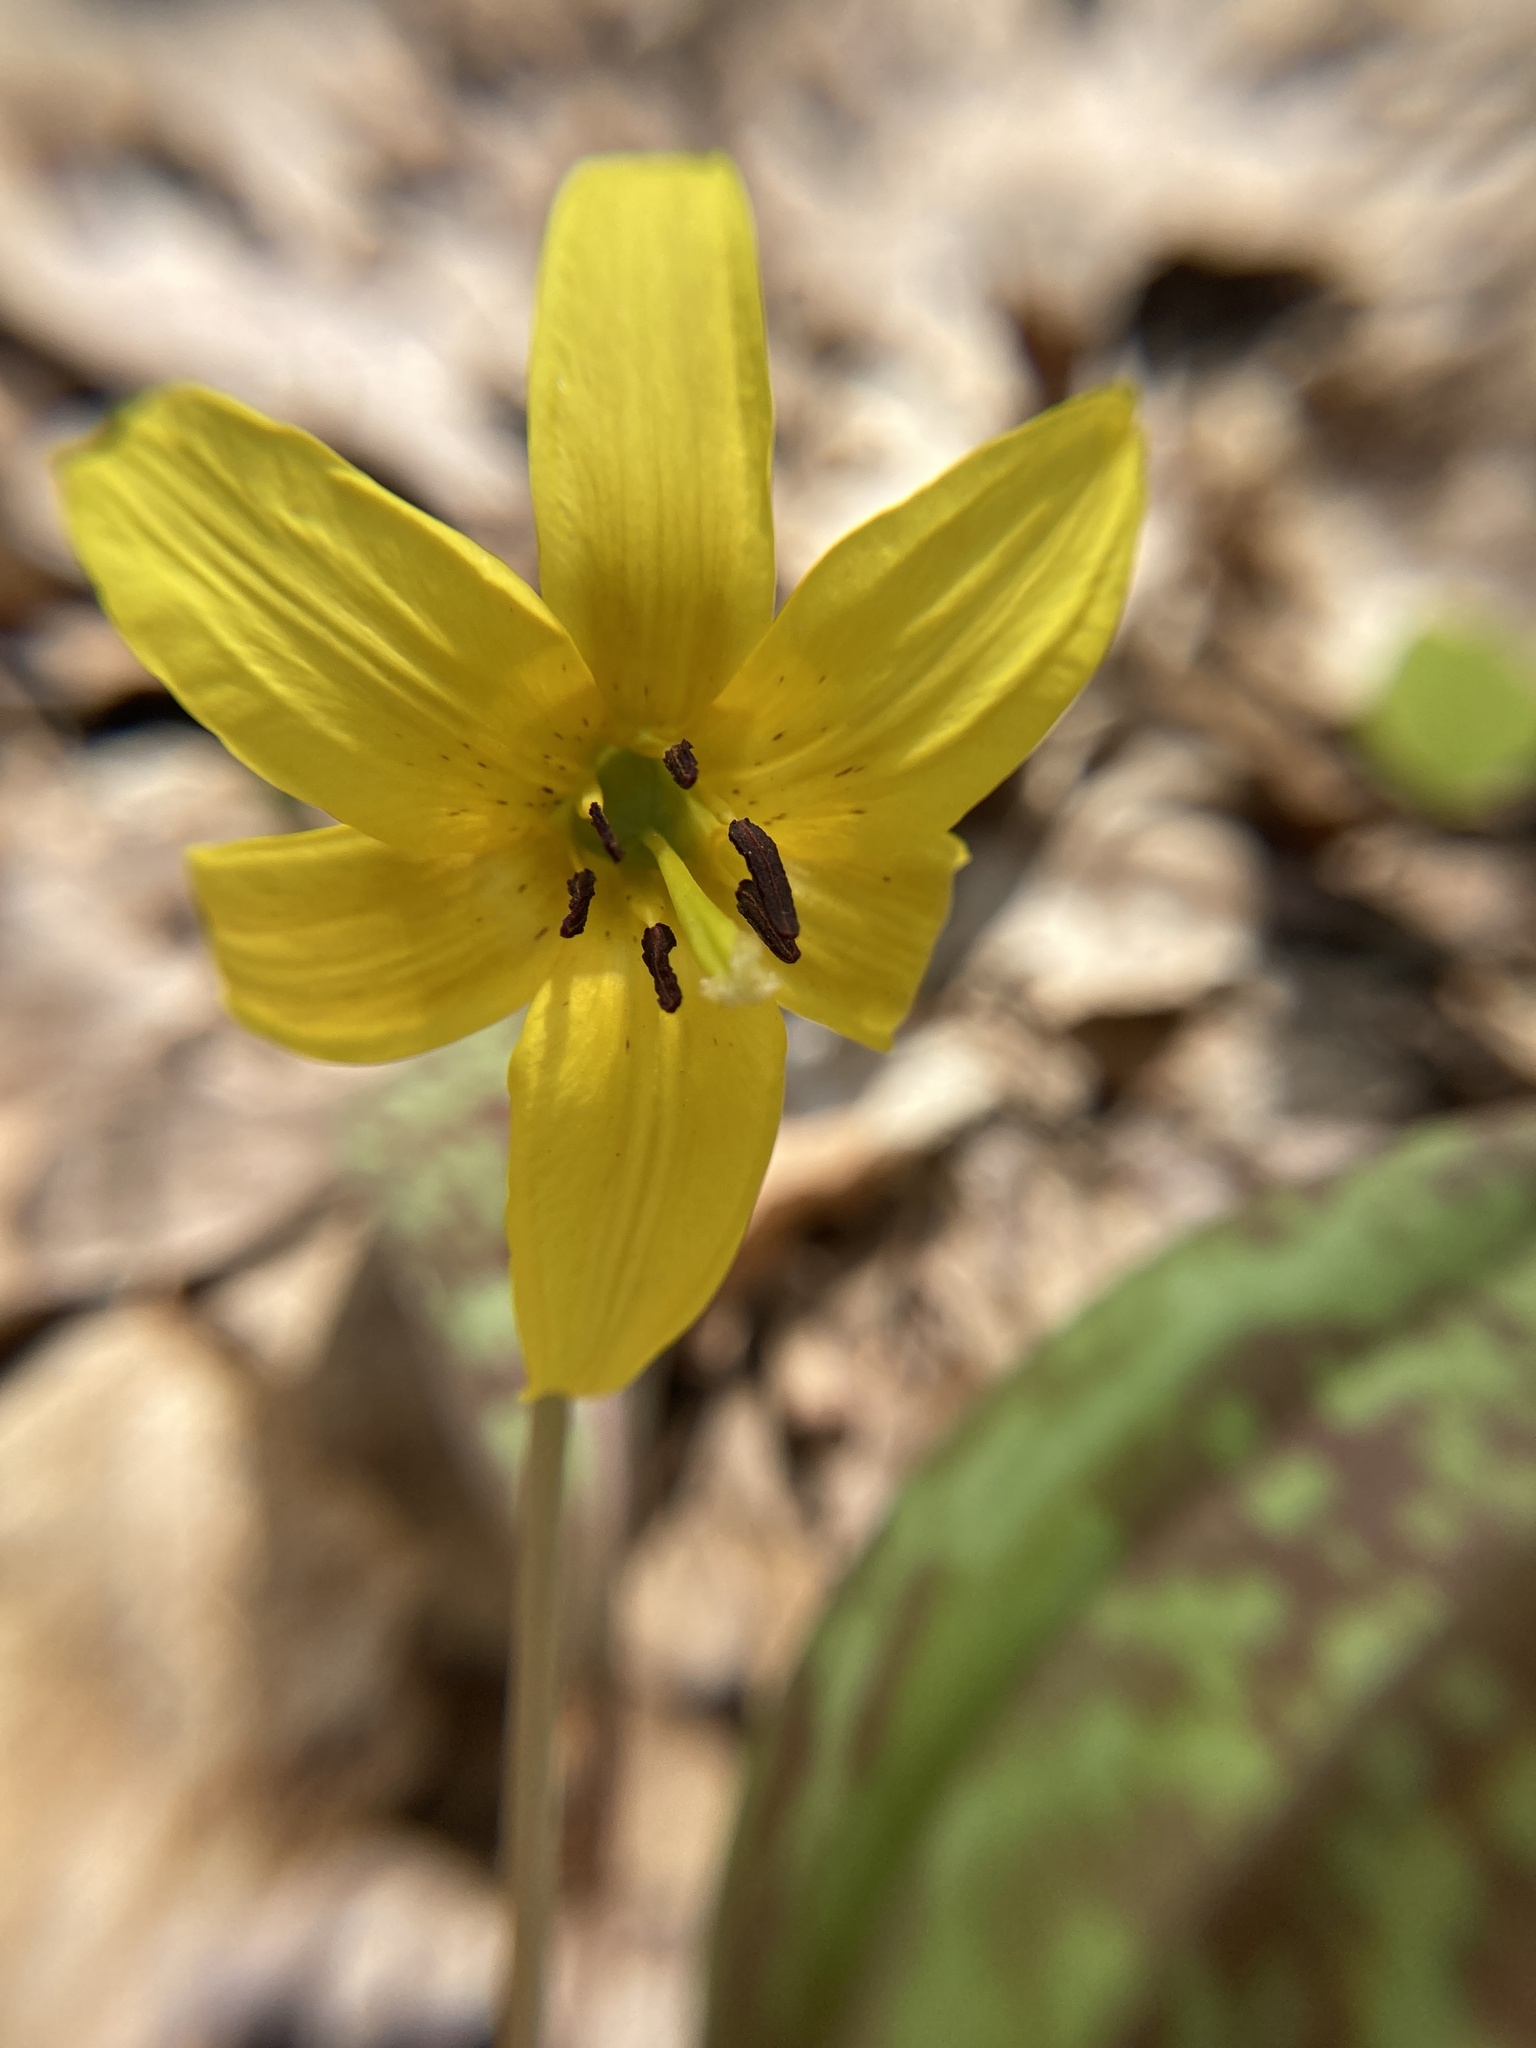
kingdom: Plantae
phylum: Tracheophyta
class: Liliopsida
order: Liliales
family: Liliaceae
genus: Erythronium
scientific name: Erythronium americanum
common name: Yellow adder's-tongue
